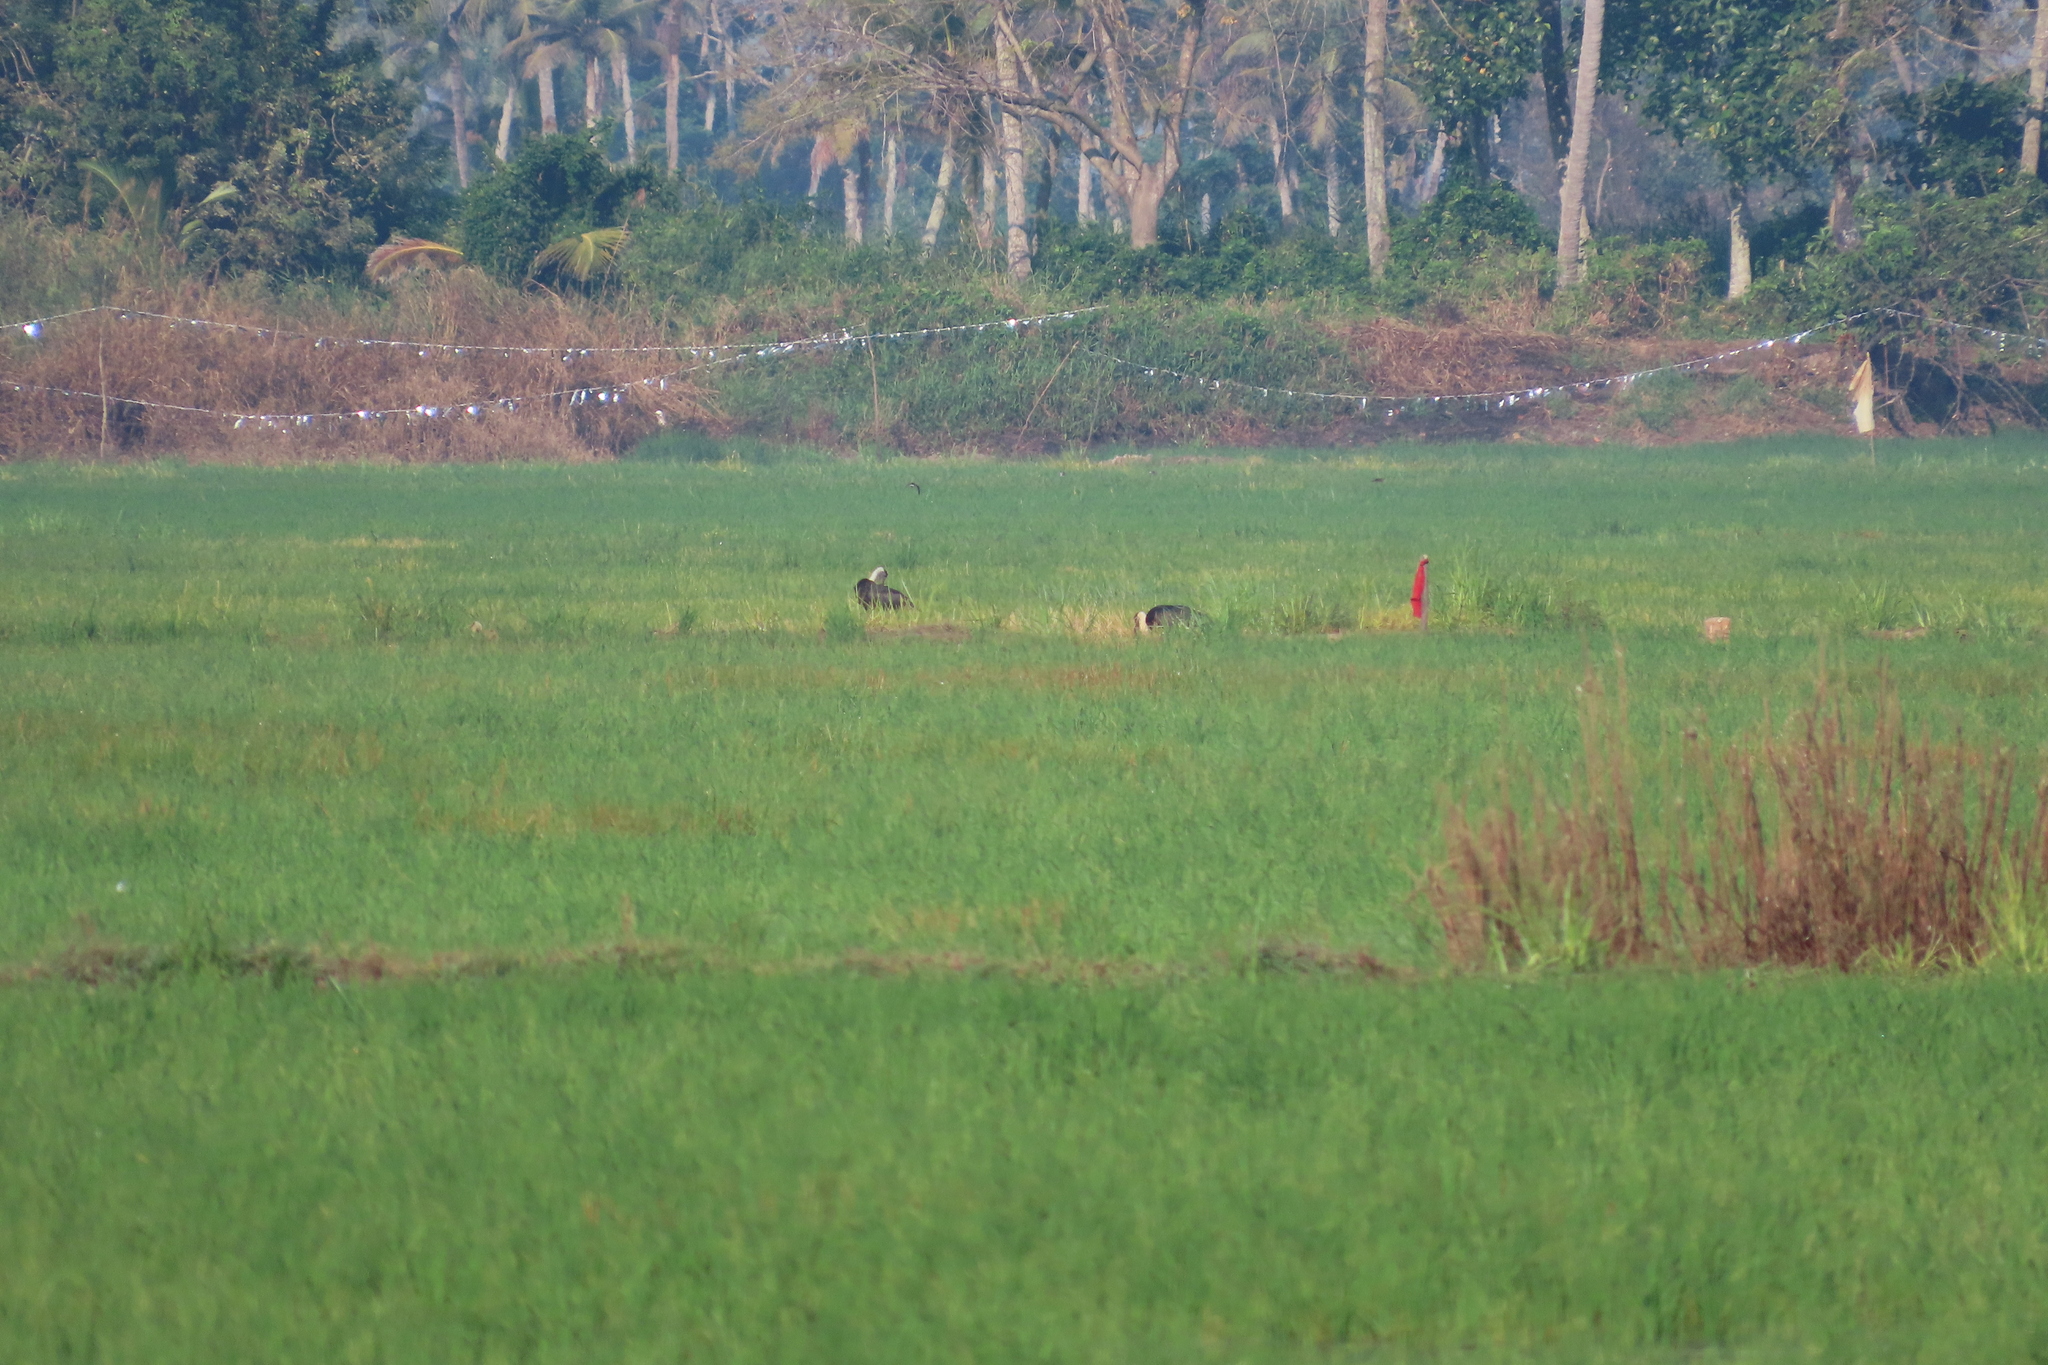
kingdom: Animalia
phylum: Chordata
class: Aves
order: Ciconiiformes
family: Ciconiidae
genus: Ciconia
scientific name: Ciconia episcopus
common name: Woolly-necked stork
